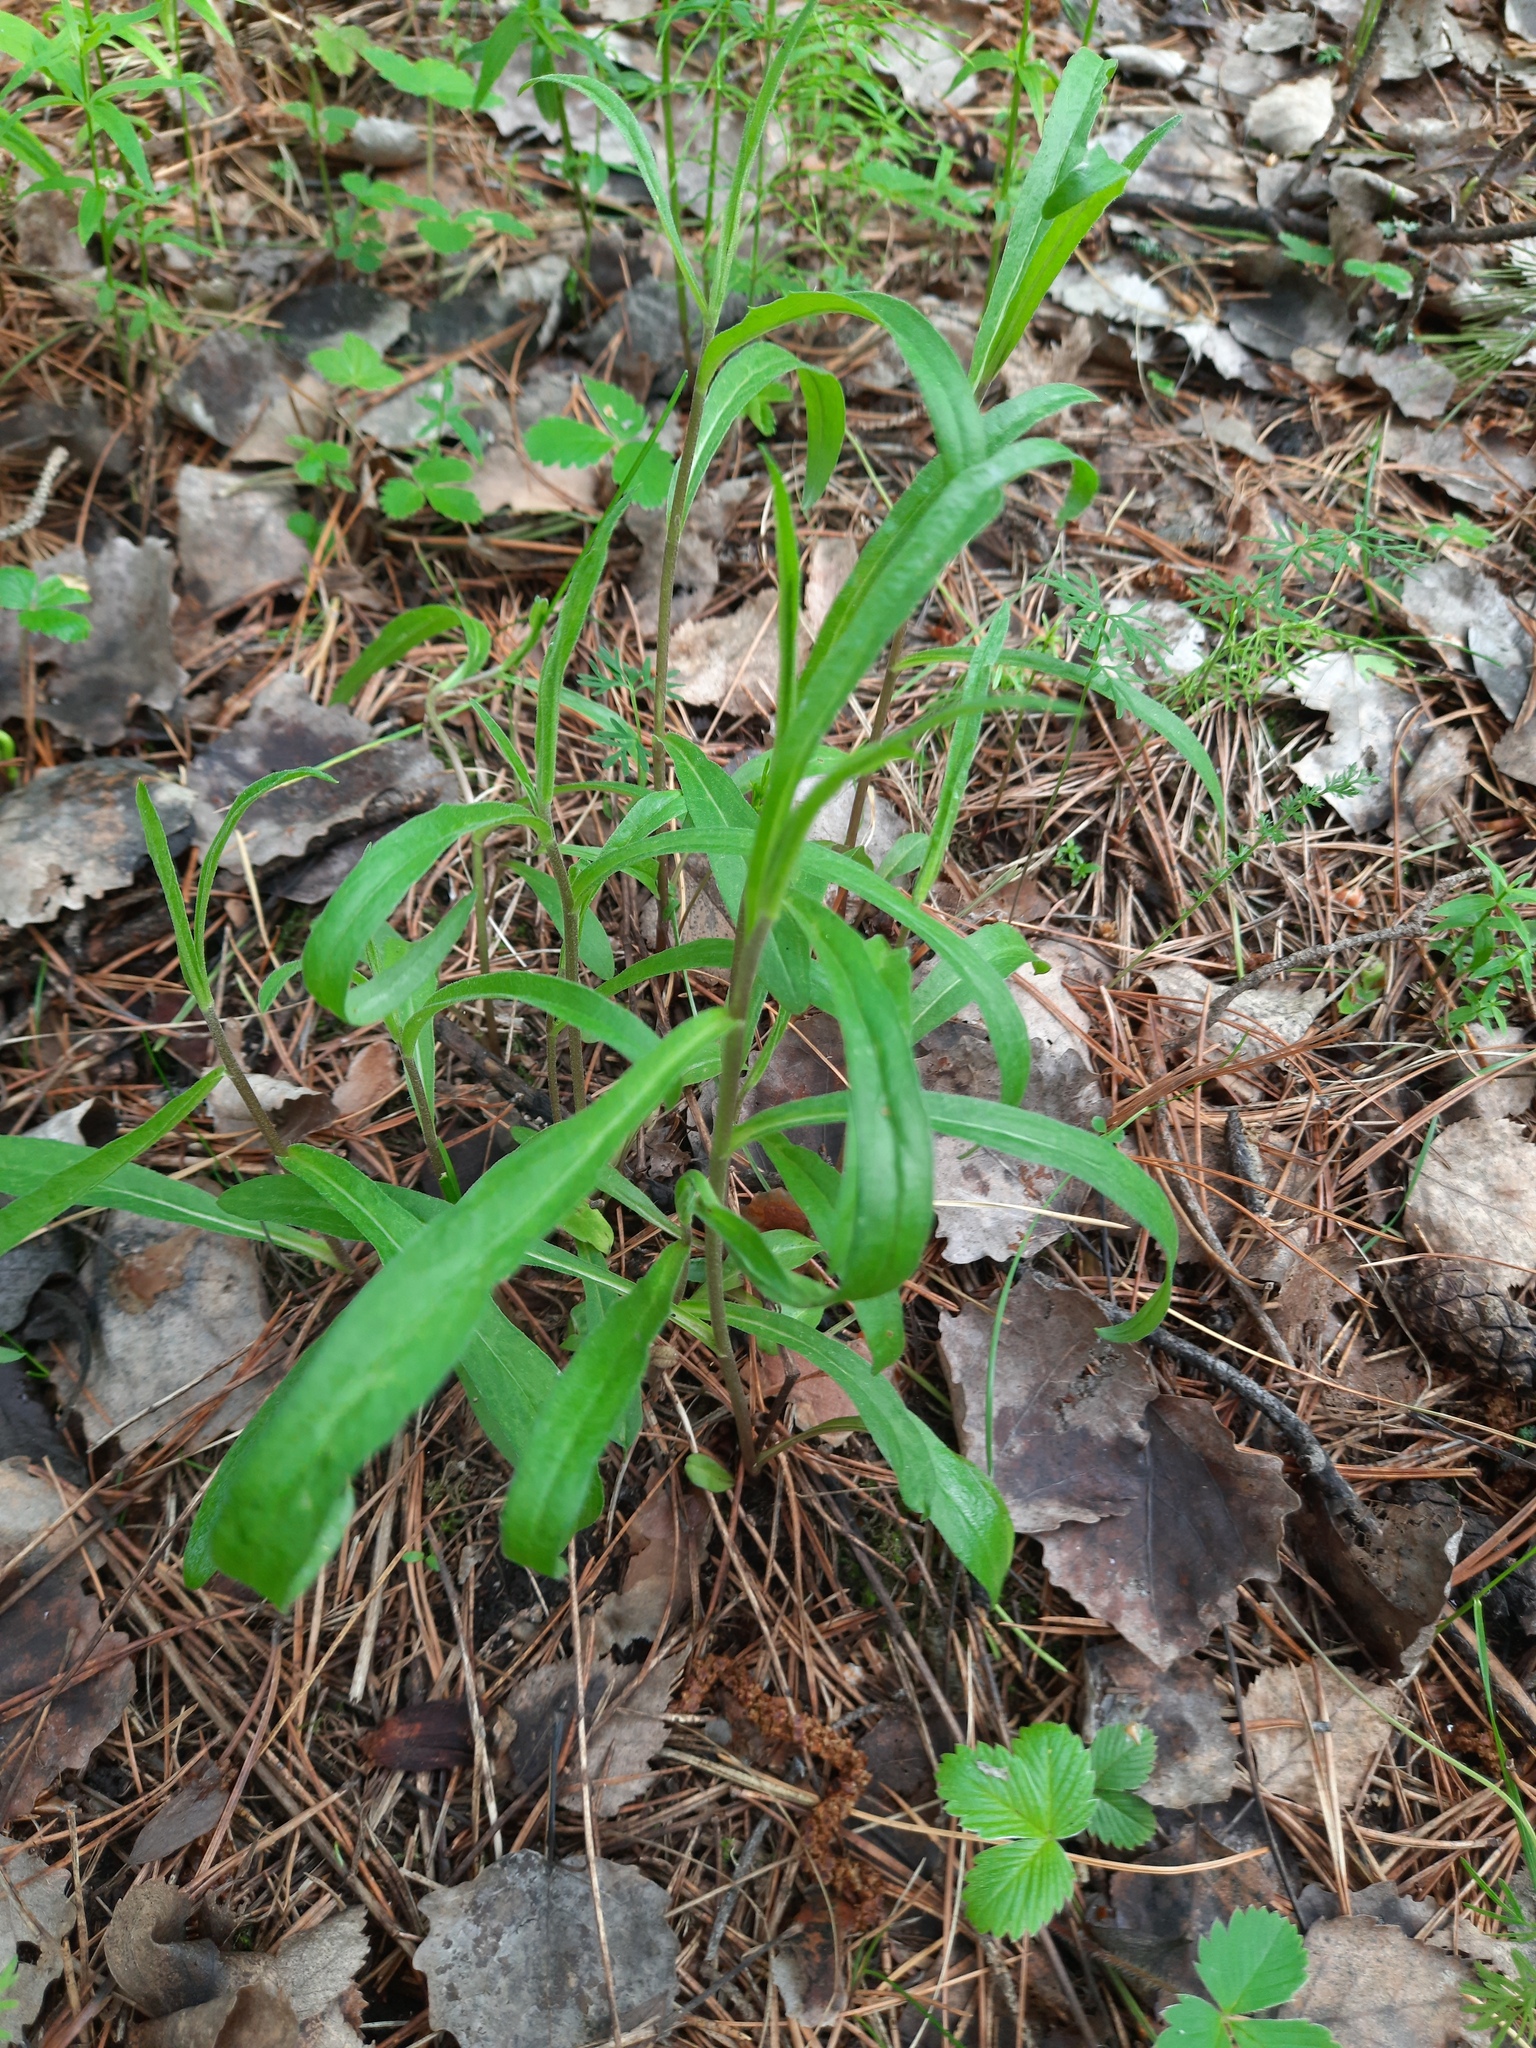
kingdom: Plantae
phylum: Tracheophyta
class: Magnoliopsida
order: Asterales
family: Asteraceae
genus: Hieracium
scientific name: Hieracium umbellatum
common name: Northern hawkweed
